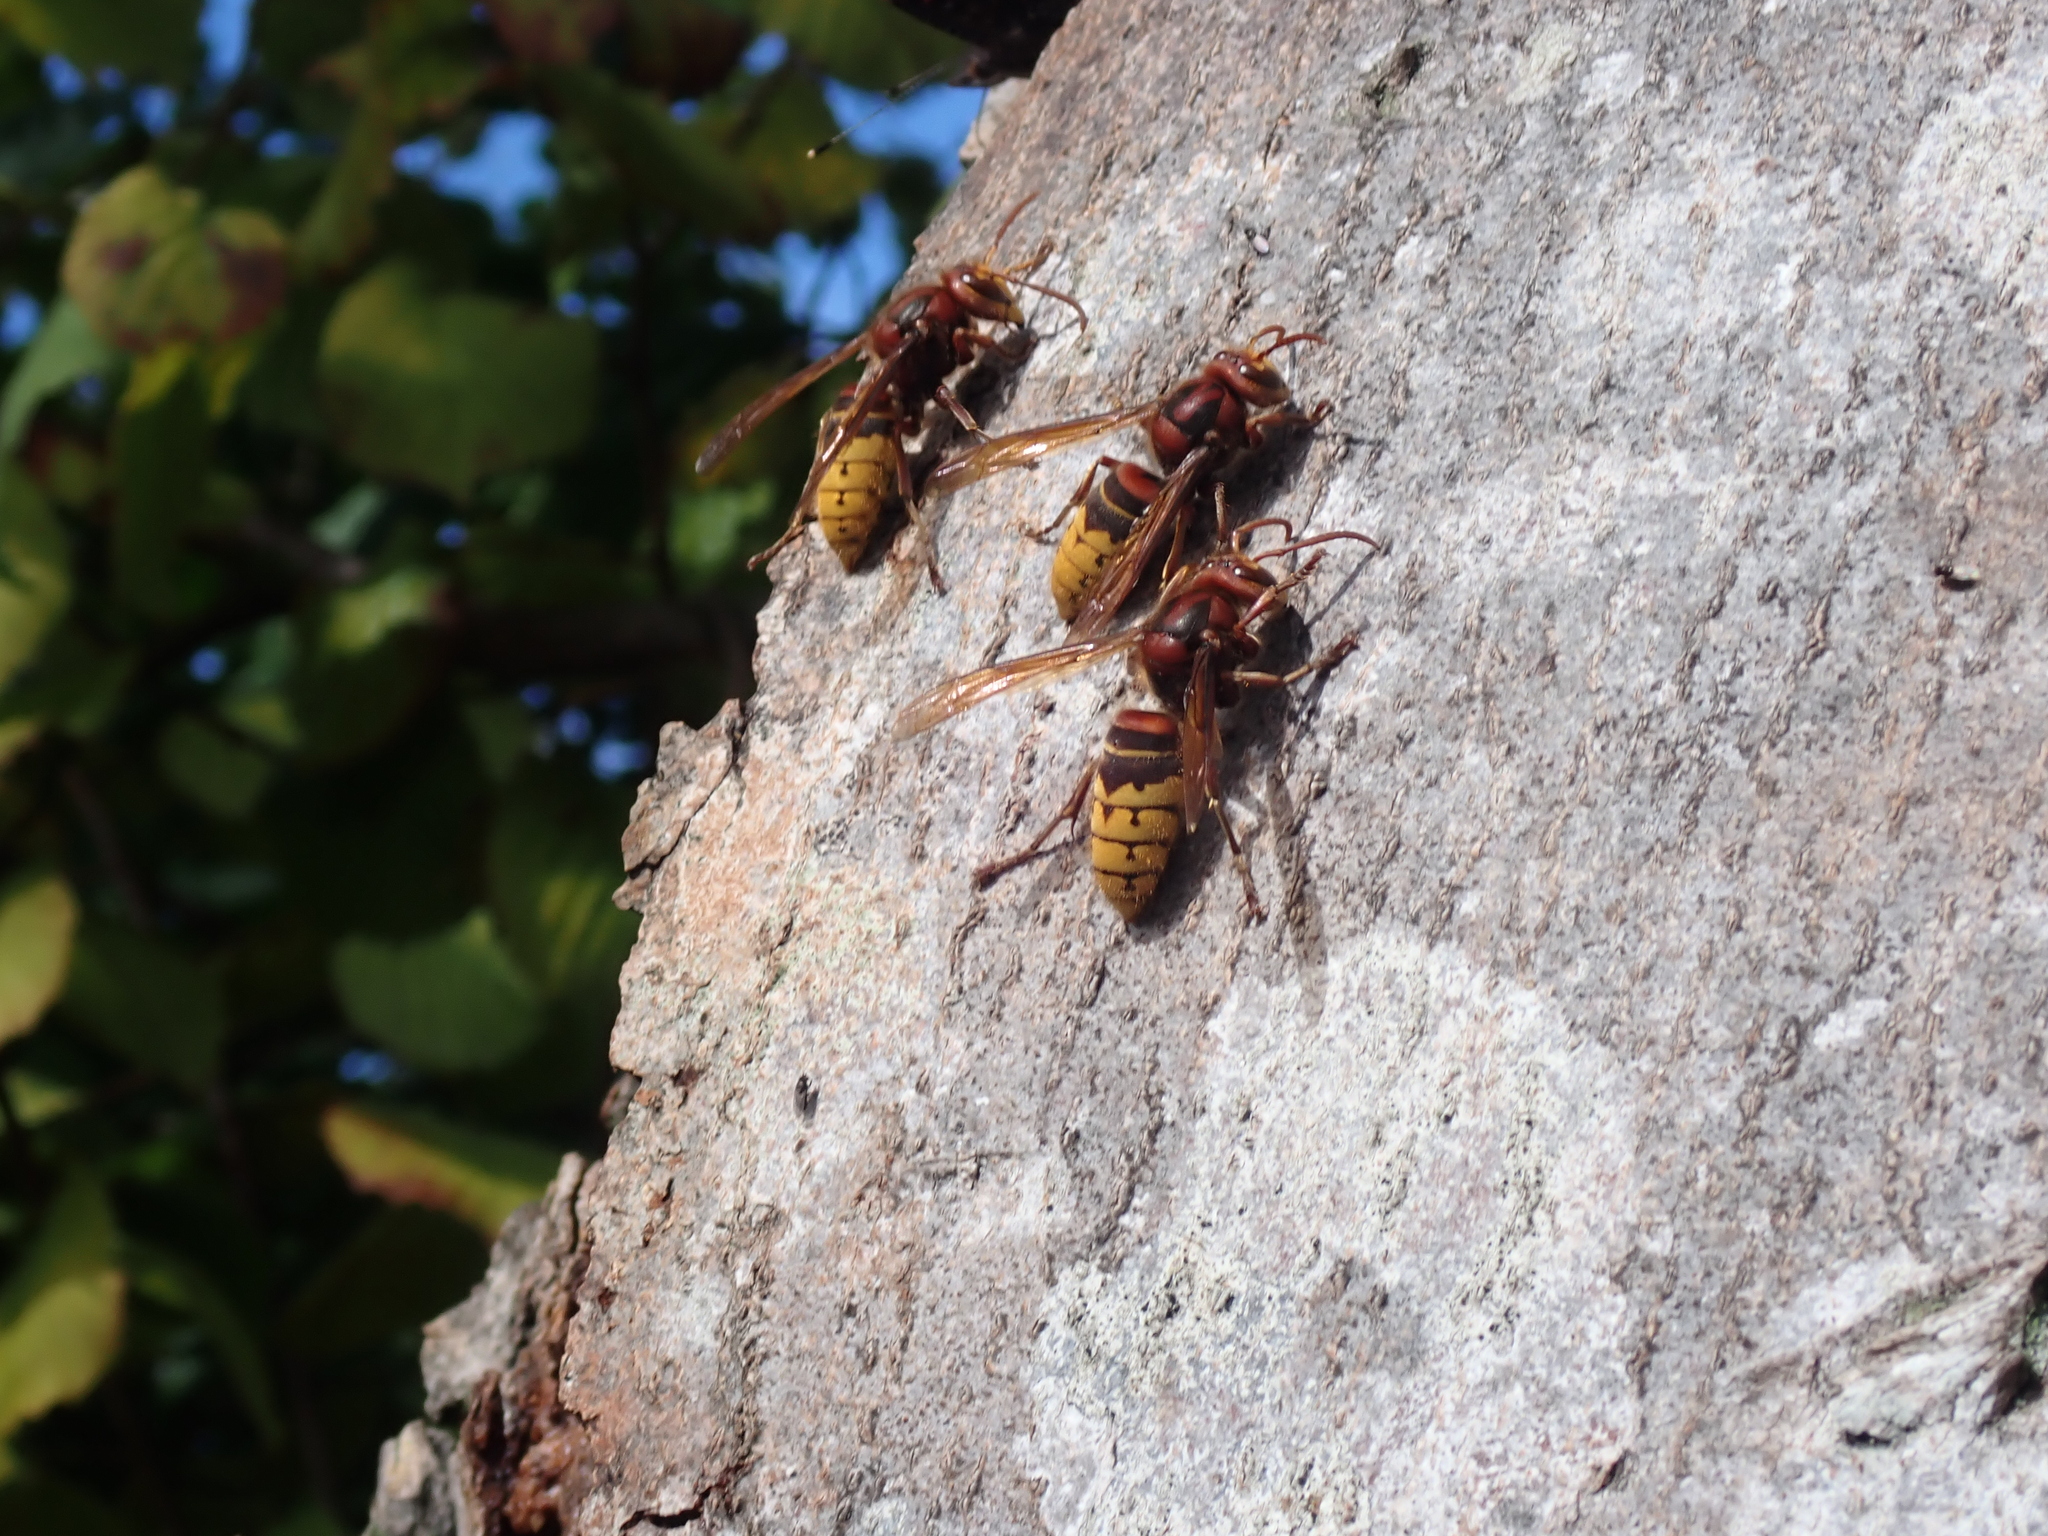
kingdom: Animalia
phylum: Arthropoda
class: Insecta
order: Hymenoptera
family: Vespidae
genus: Vespa
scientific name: Vespa crabro
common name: Hornet
